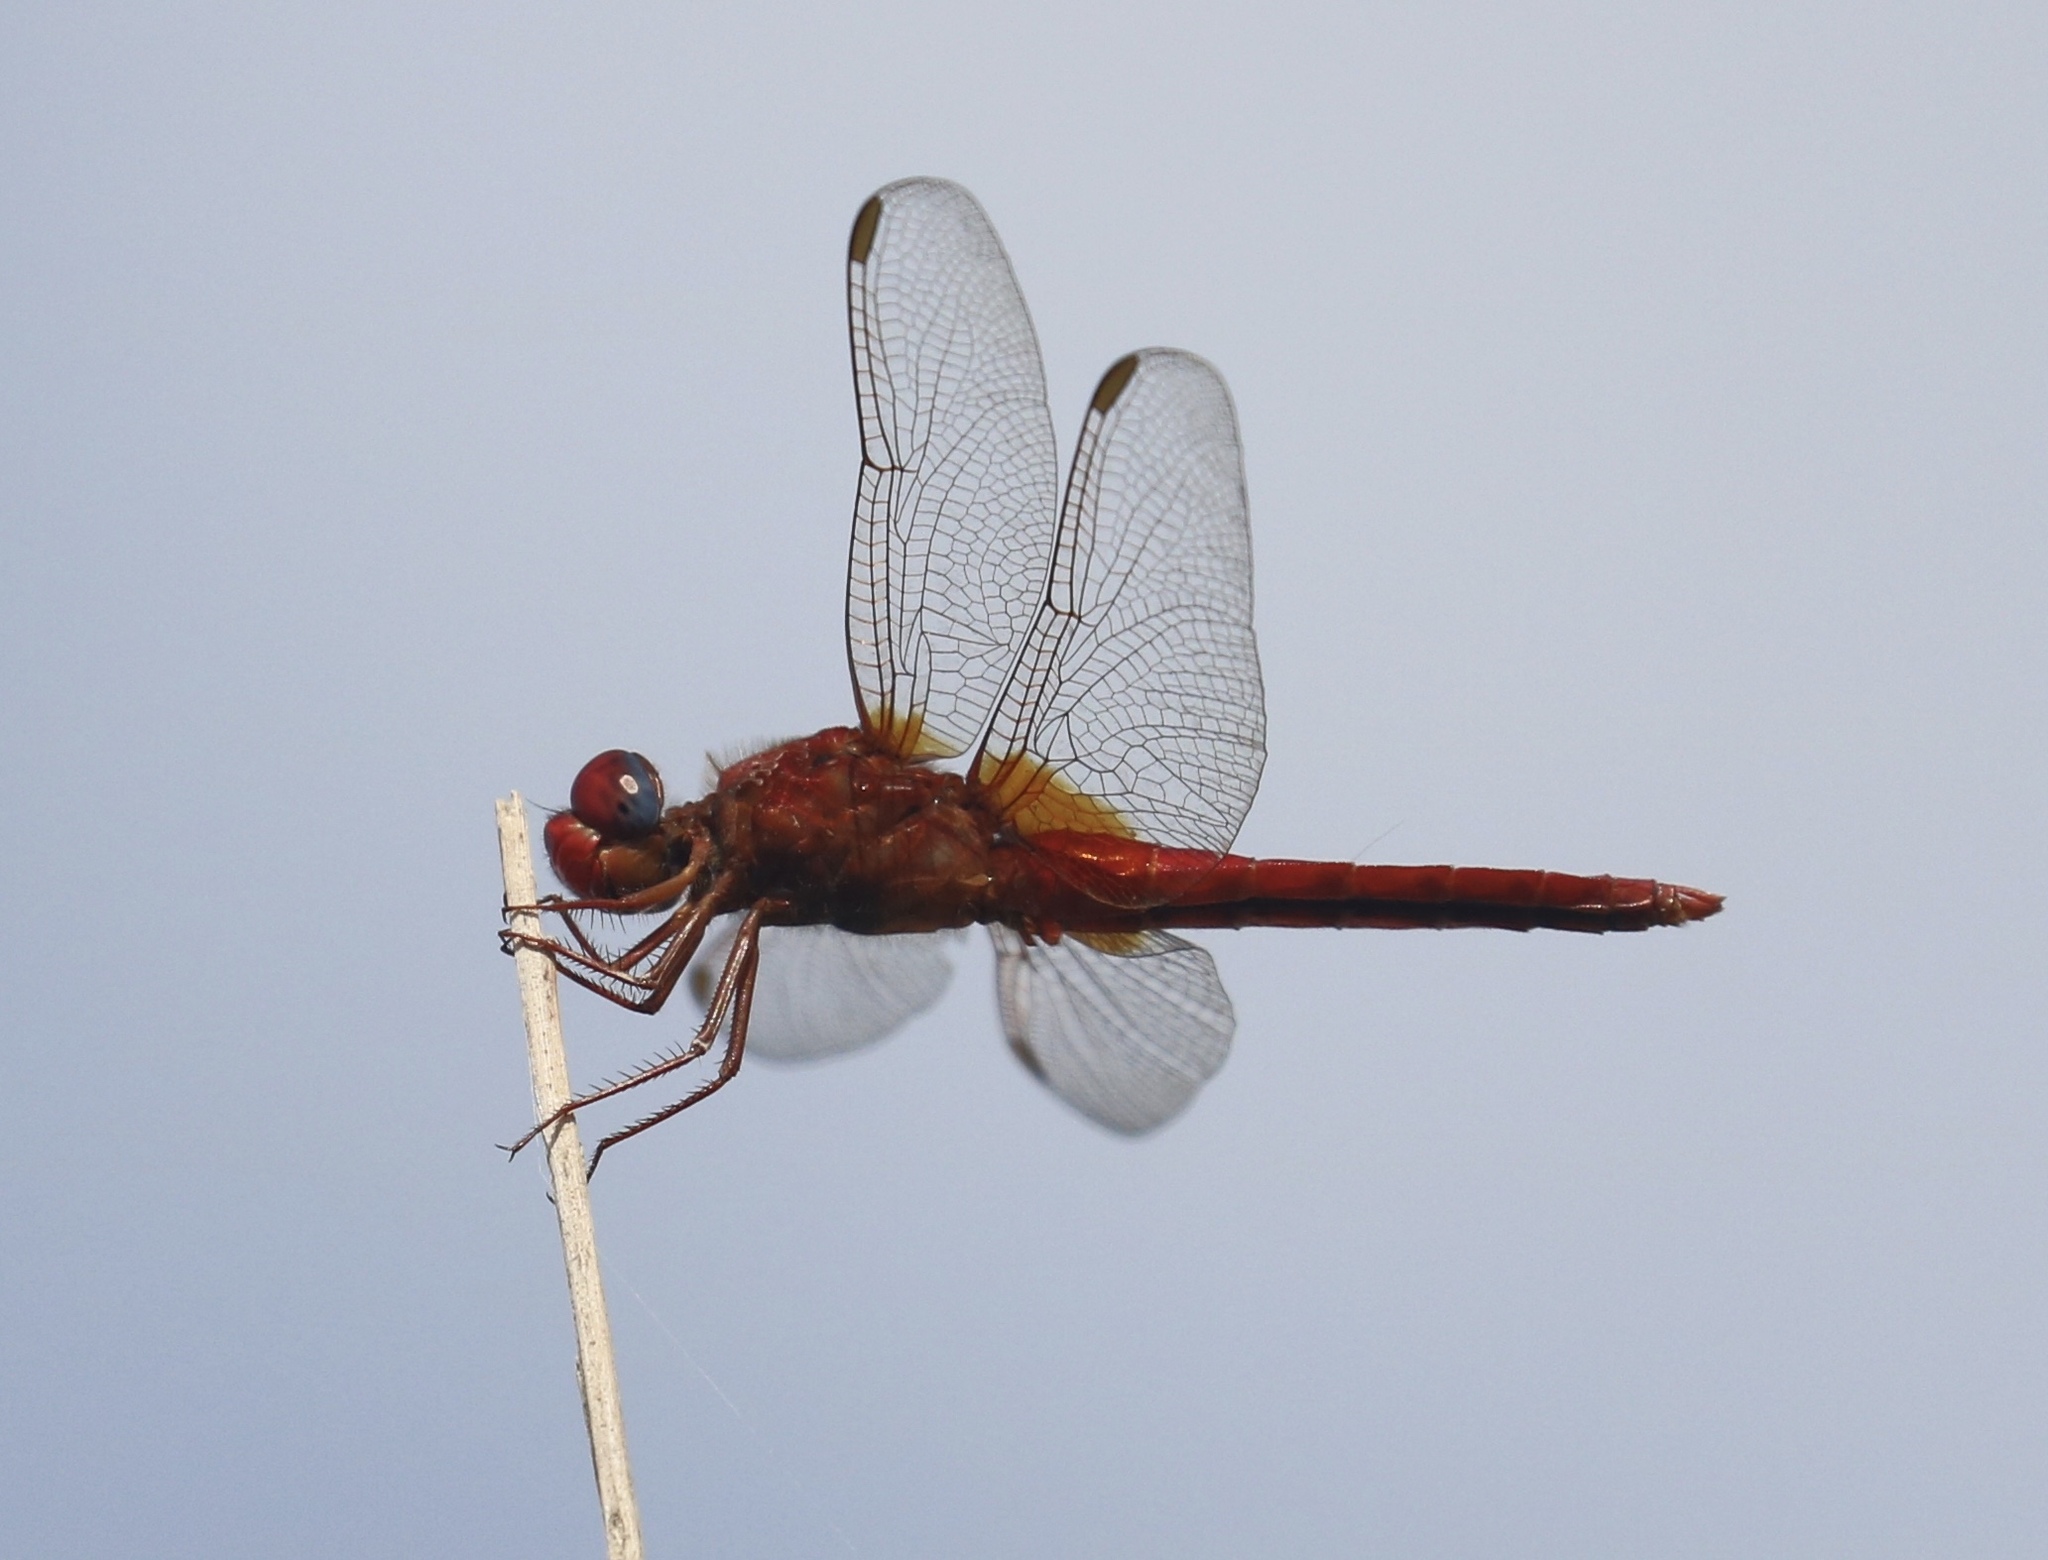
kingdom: Animalia
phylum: Arthropoda
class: Insecta
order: Odonata
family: Libellulidae
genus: Crocothemis
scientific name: Crocothemis erythraea
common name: Scarlet dragonfly
